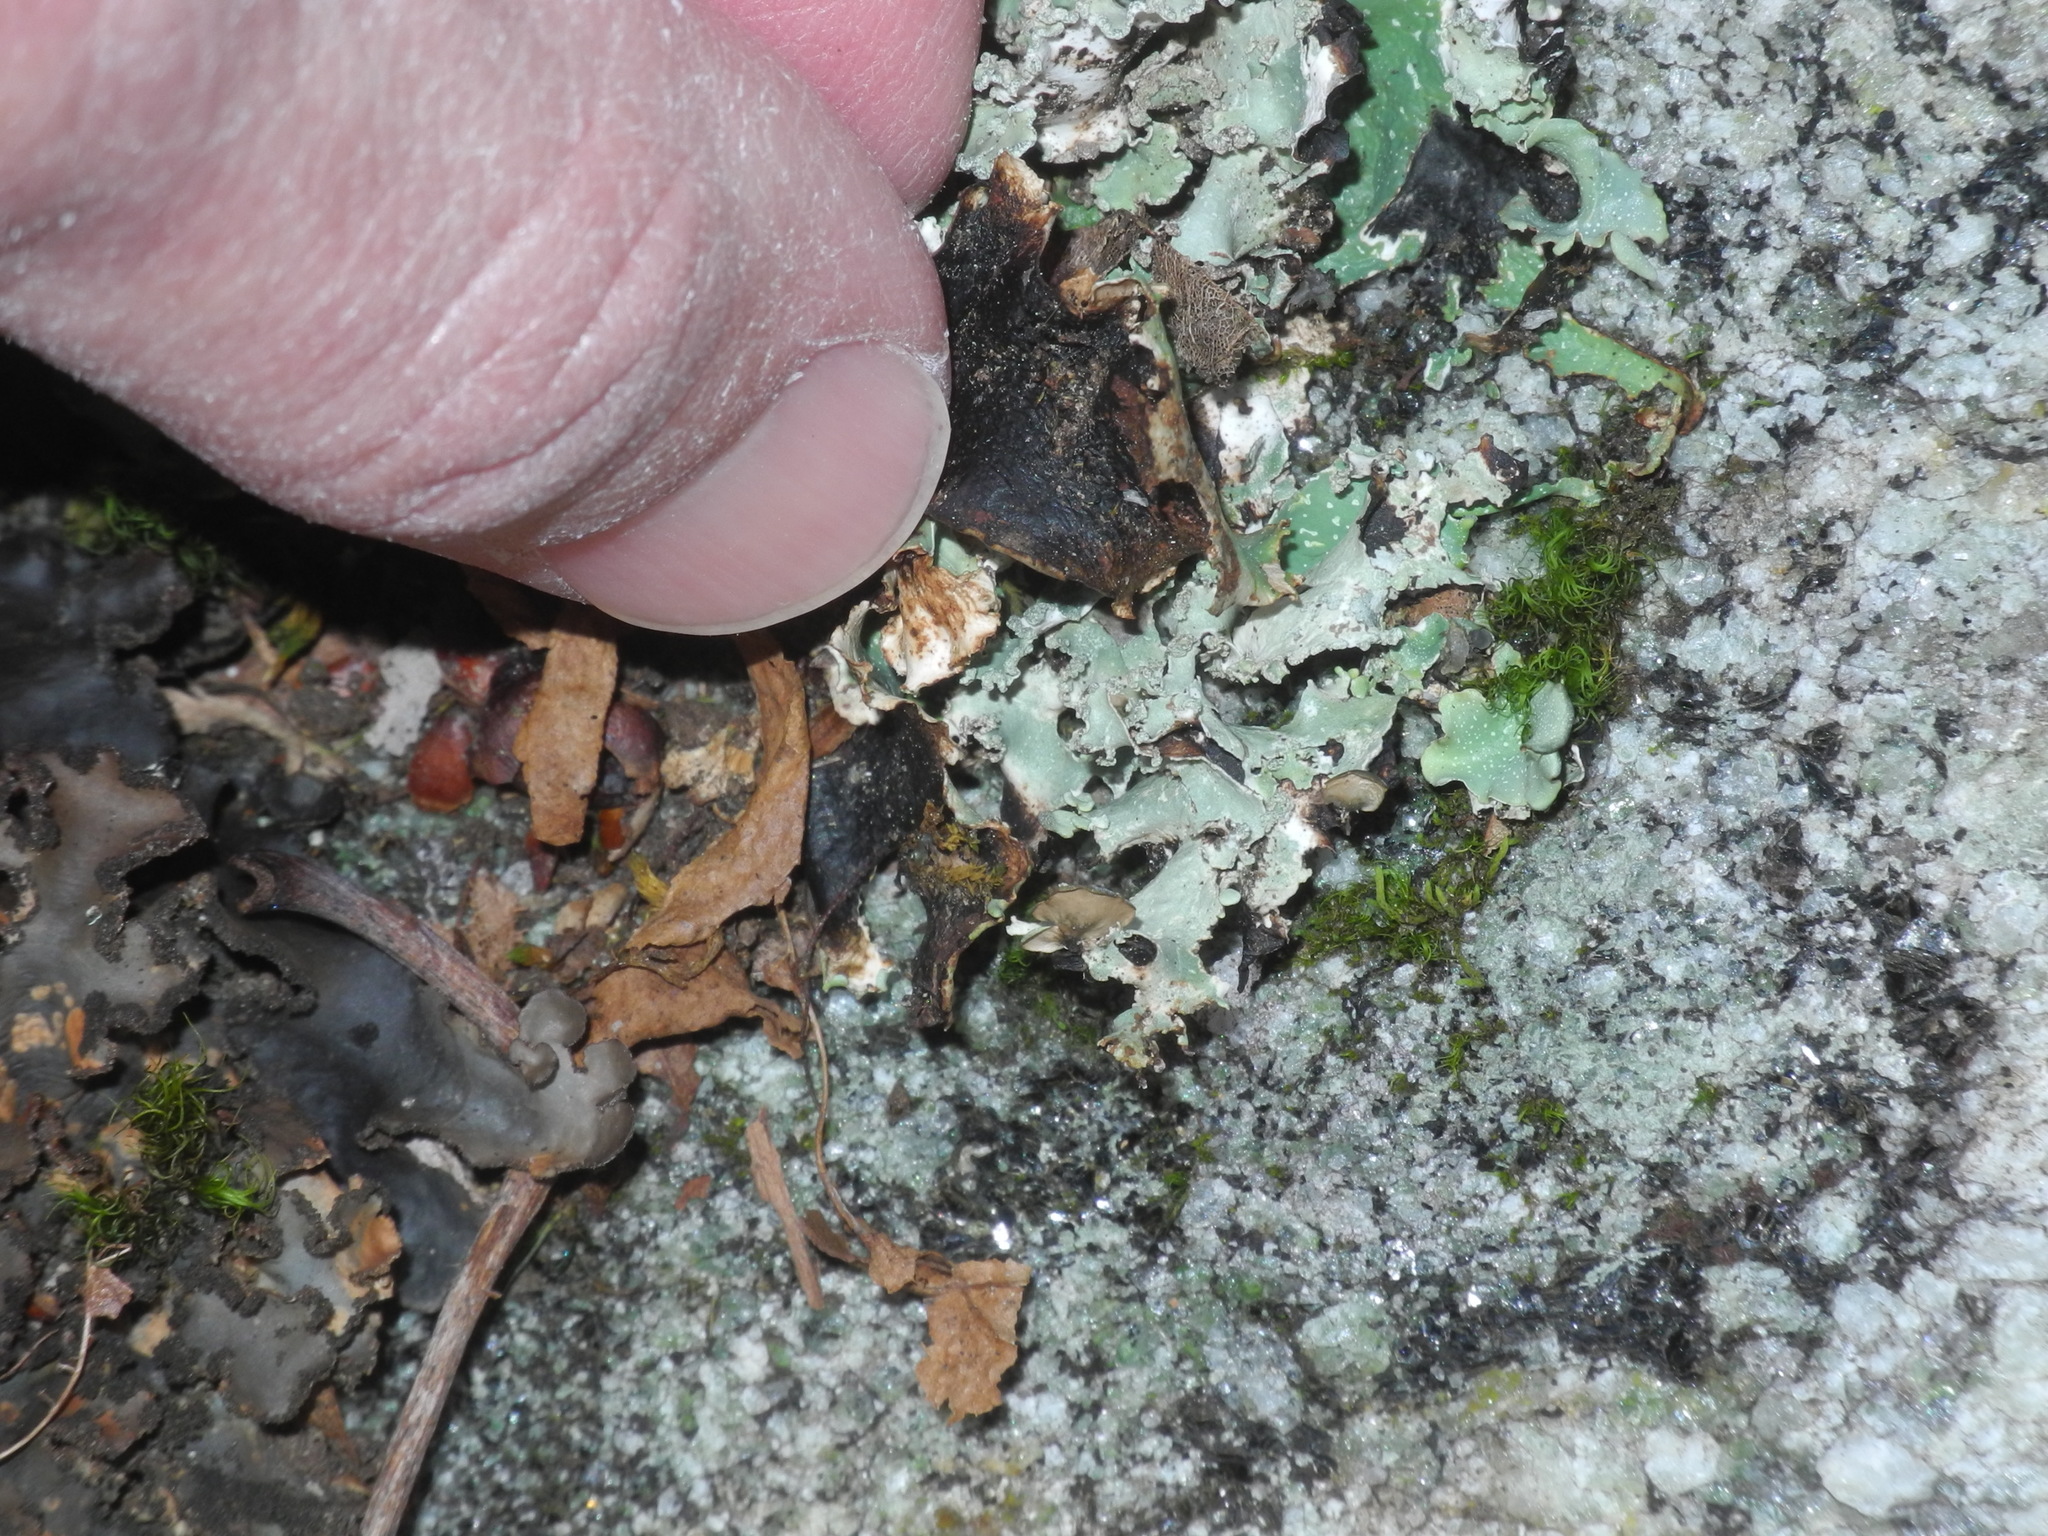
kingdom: Fungi
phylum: Ascomycota
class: Lecanoromycetes
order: Lecanorales
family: Parmeliaceae
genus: Cetrelia
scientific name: Cetrelia chicitae
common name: Chicita's sea storm lichen
